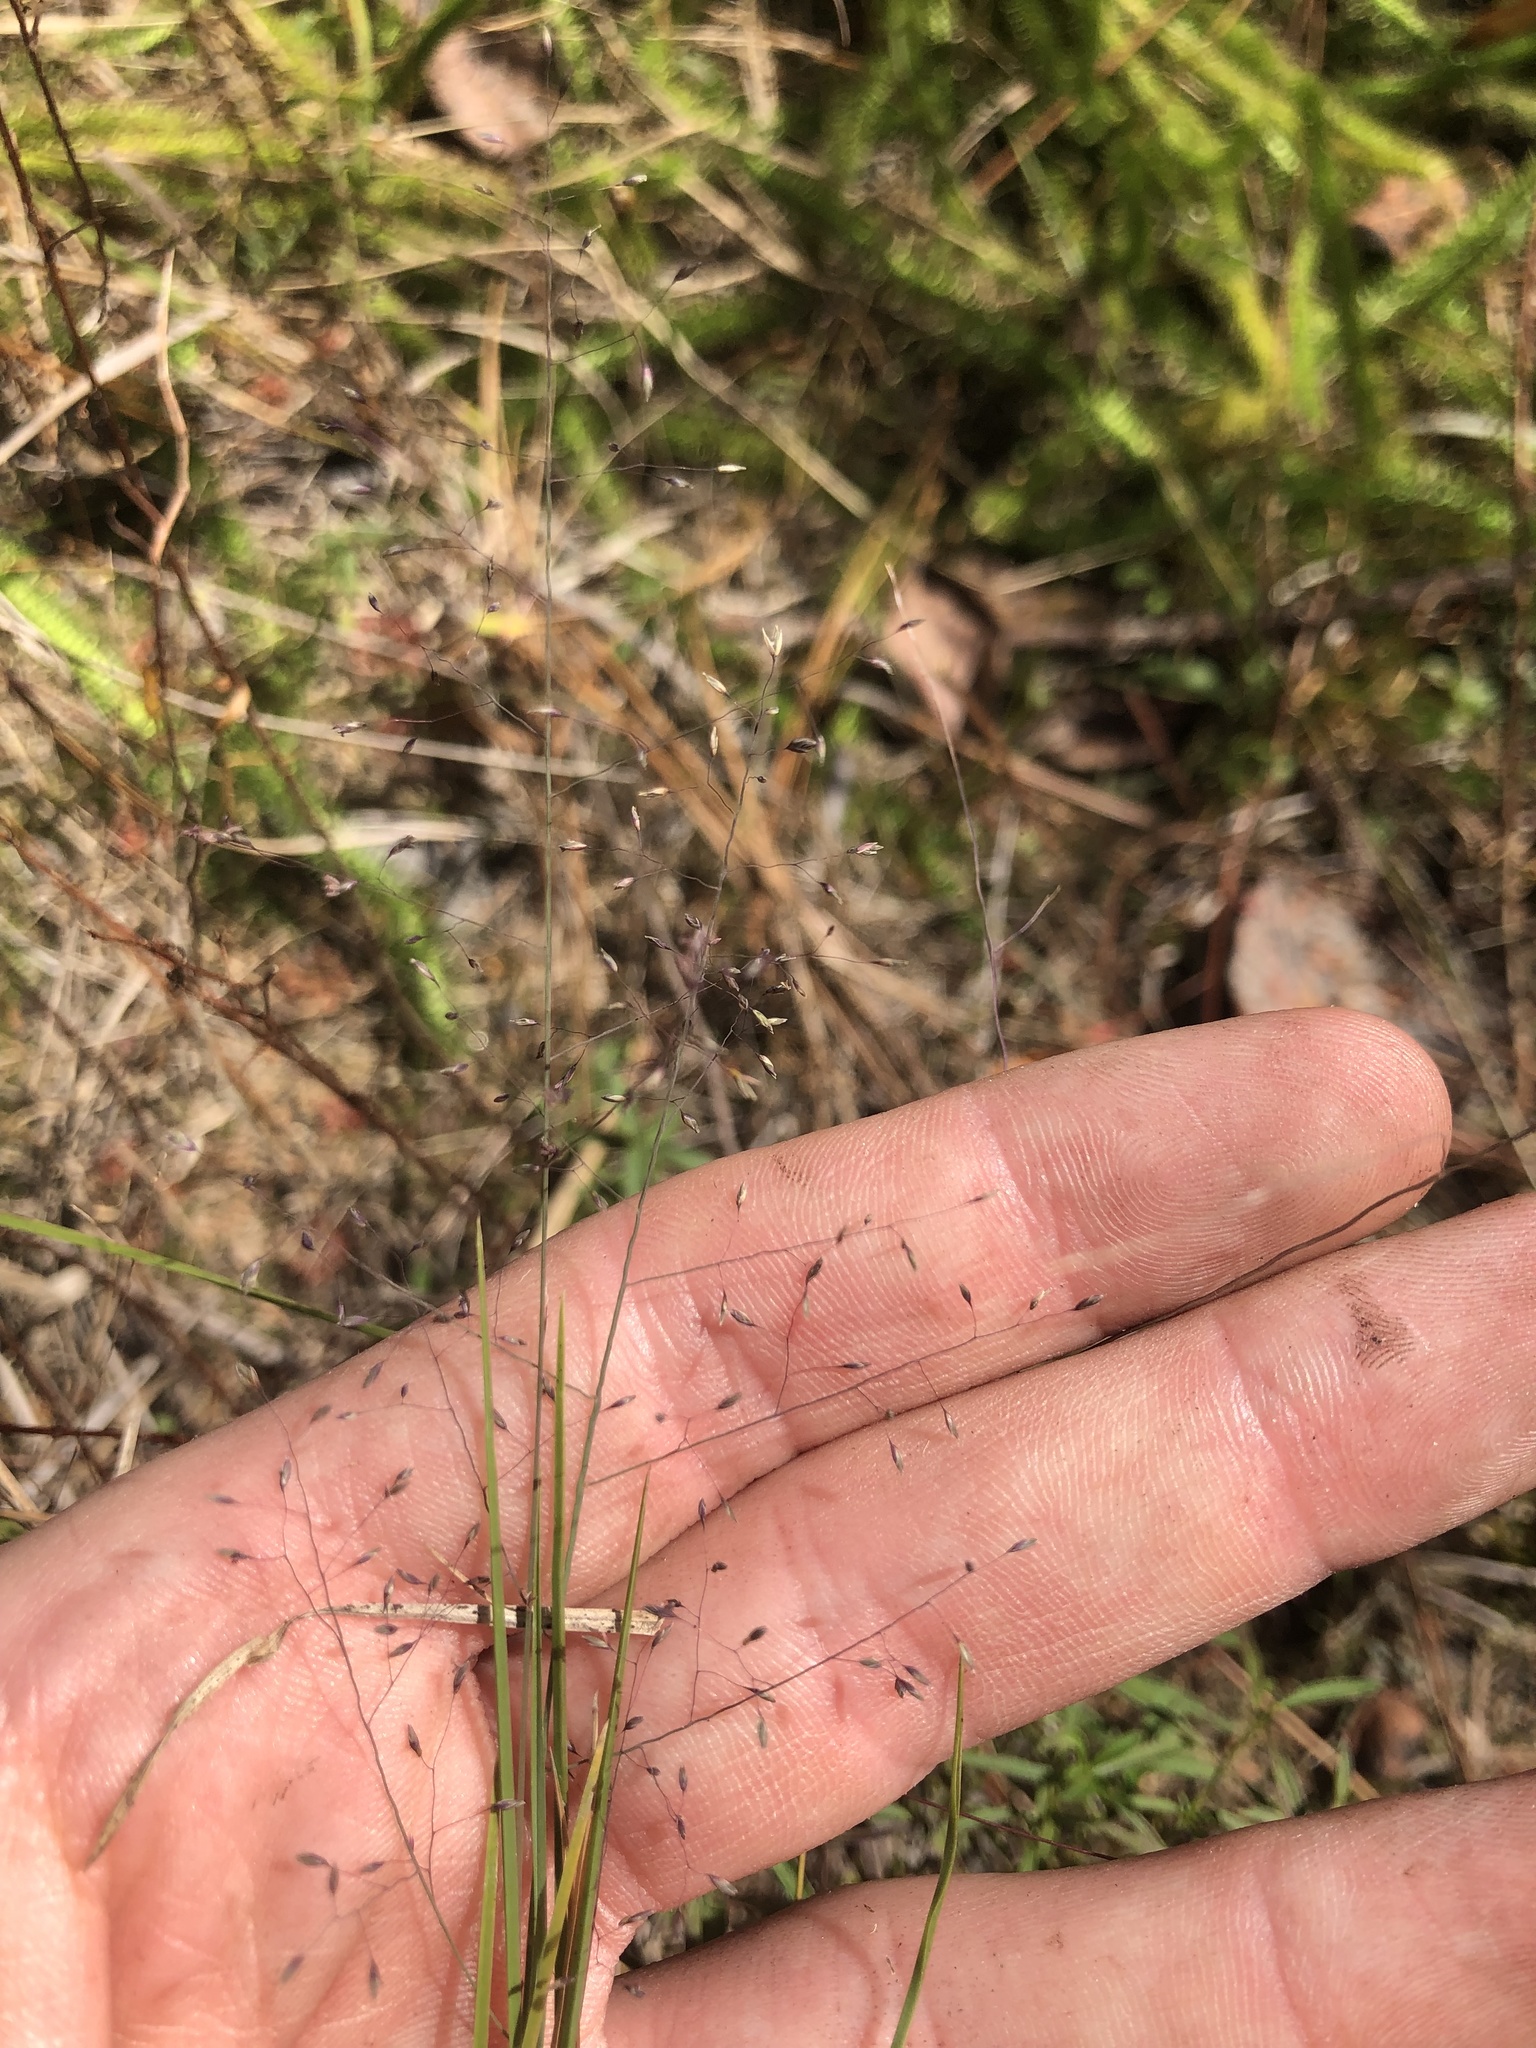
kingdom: Plantae
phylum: Tracheophyta
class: Liliopsida
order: Poales
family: Poaceae
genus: Muhlenbergia
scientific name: Muhlenbergia torreyana
